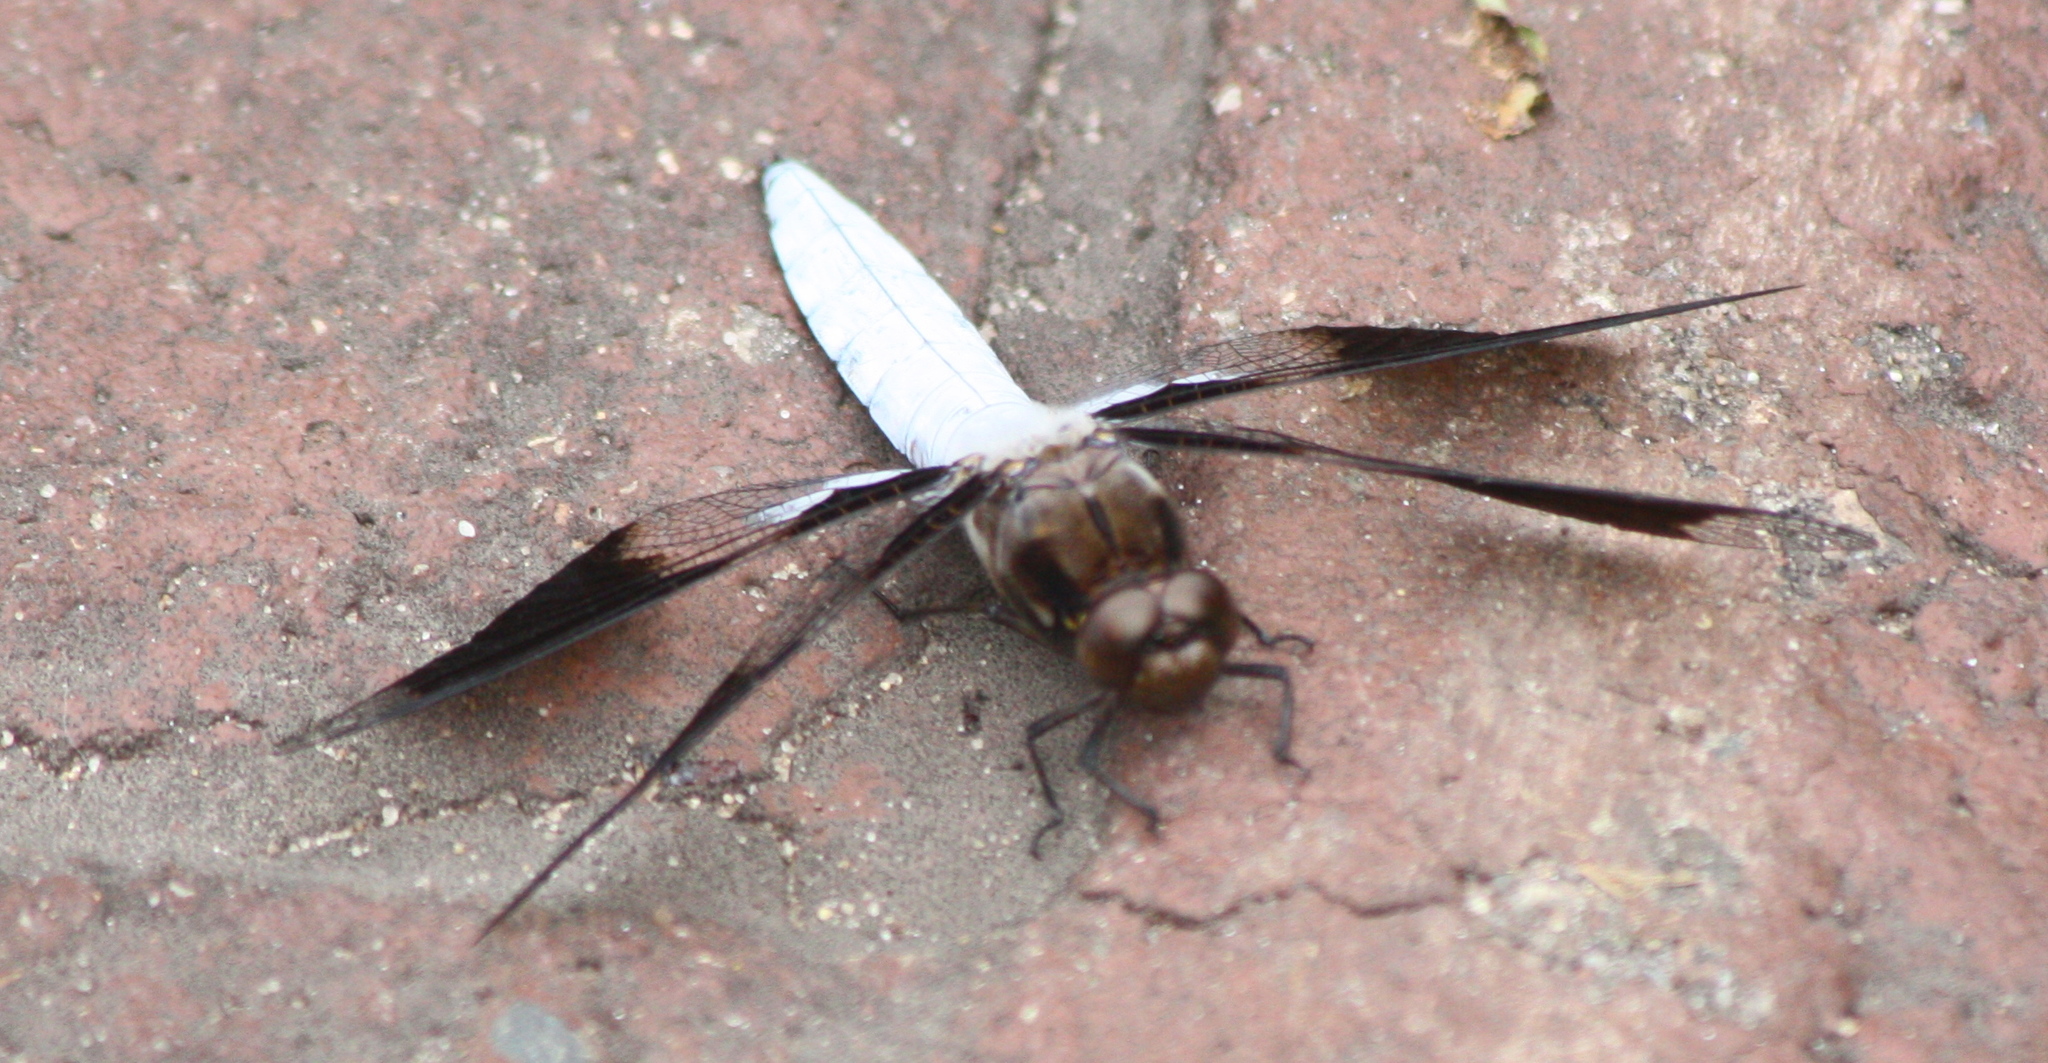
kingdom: Animalia
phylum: Arthropoda
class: Insecta
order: Odonata
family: Libellulidae
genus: Plathemis
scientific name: Plathemis lydia
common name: Common whitetail
